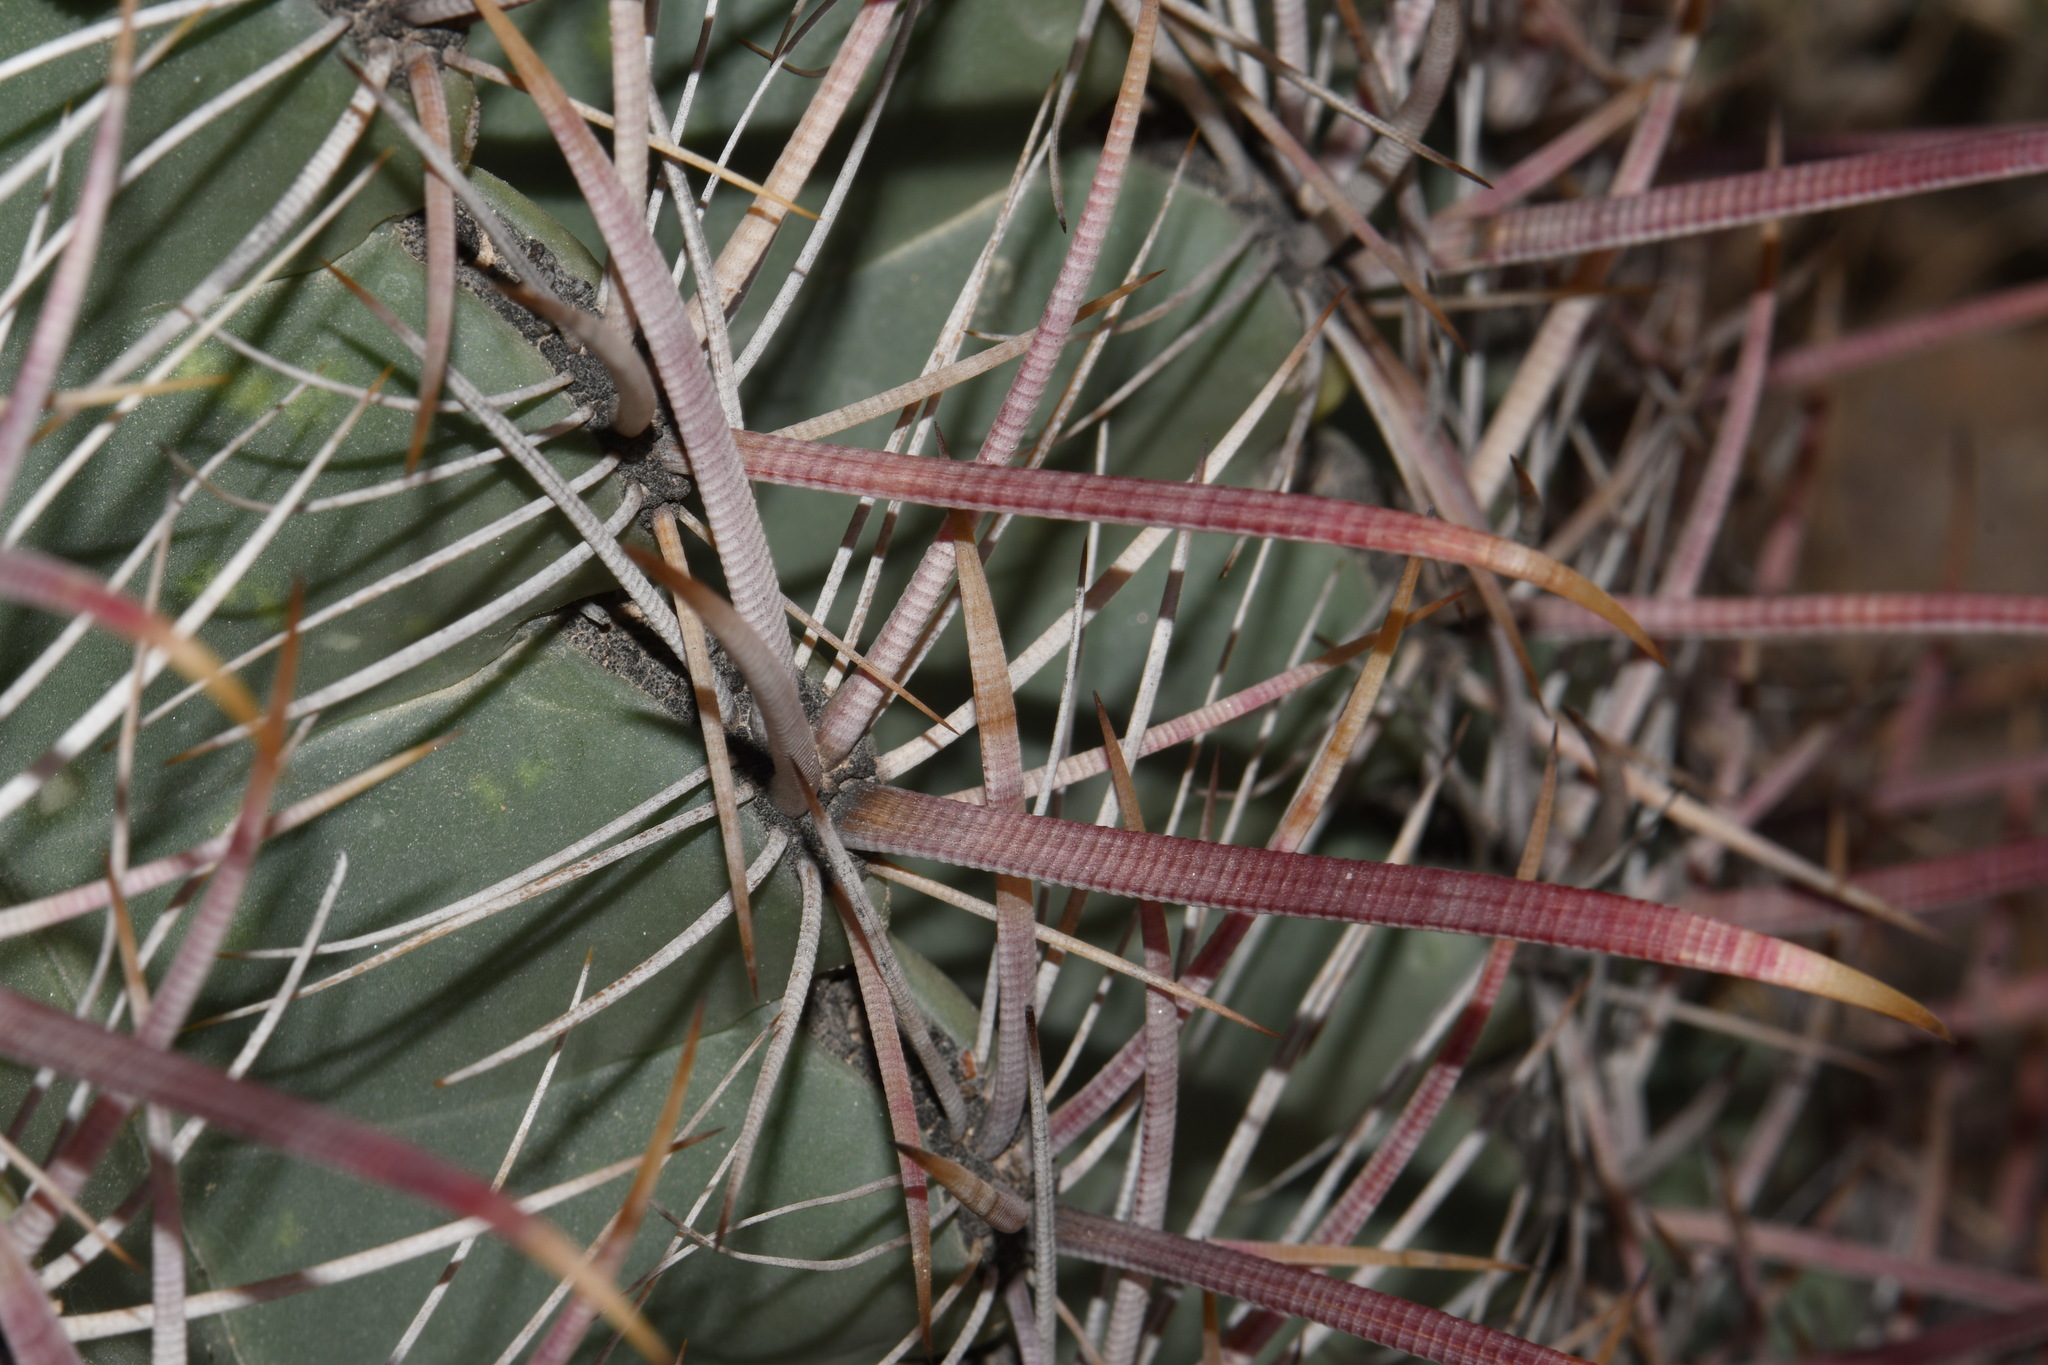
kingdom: Plantae
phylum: Tracheophyta
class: Magnoliopsida
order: Caryophyllales
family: Cactaceae
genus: Ferocactus
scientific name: Ferocactus cylindraceus
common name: California barrel cactus
